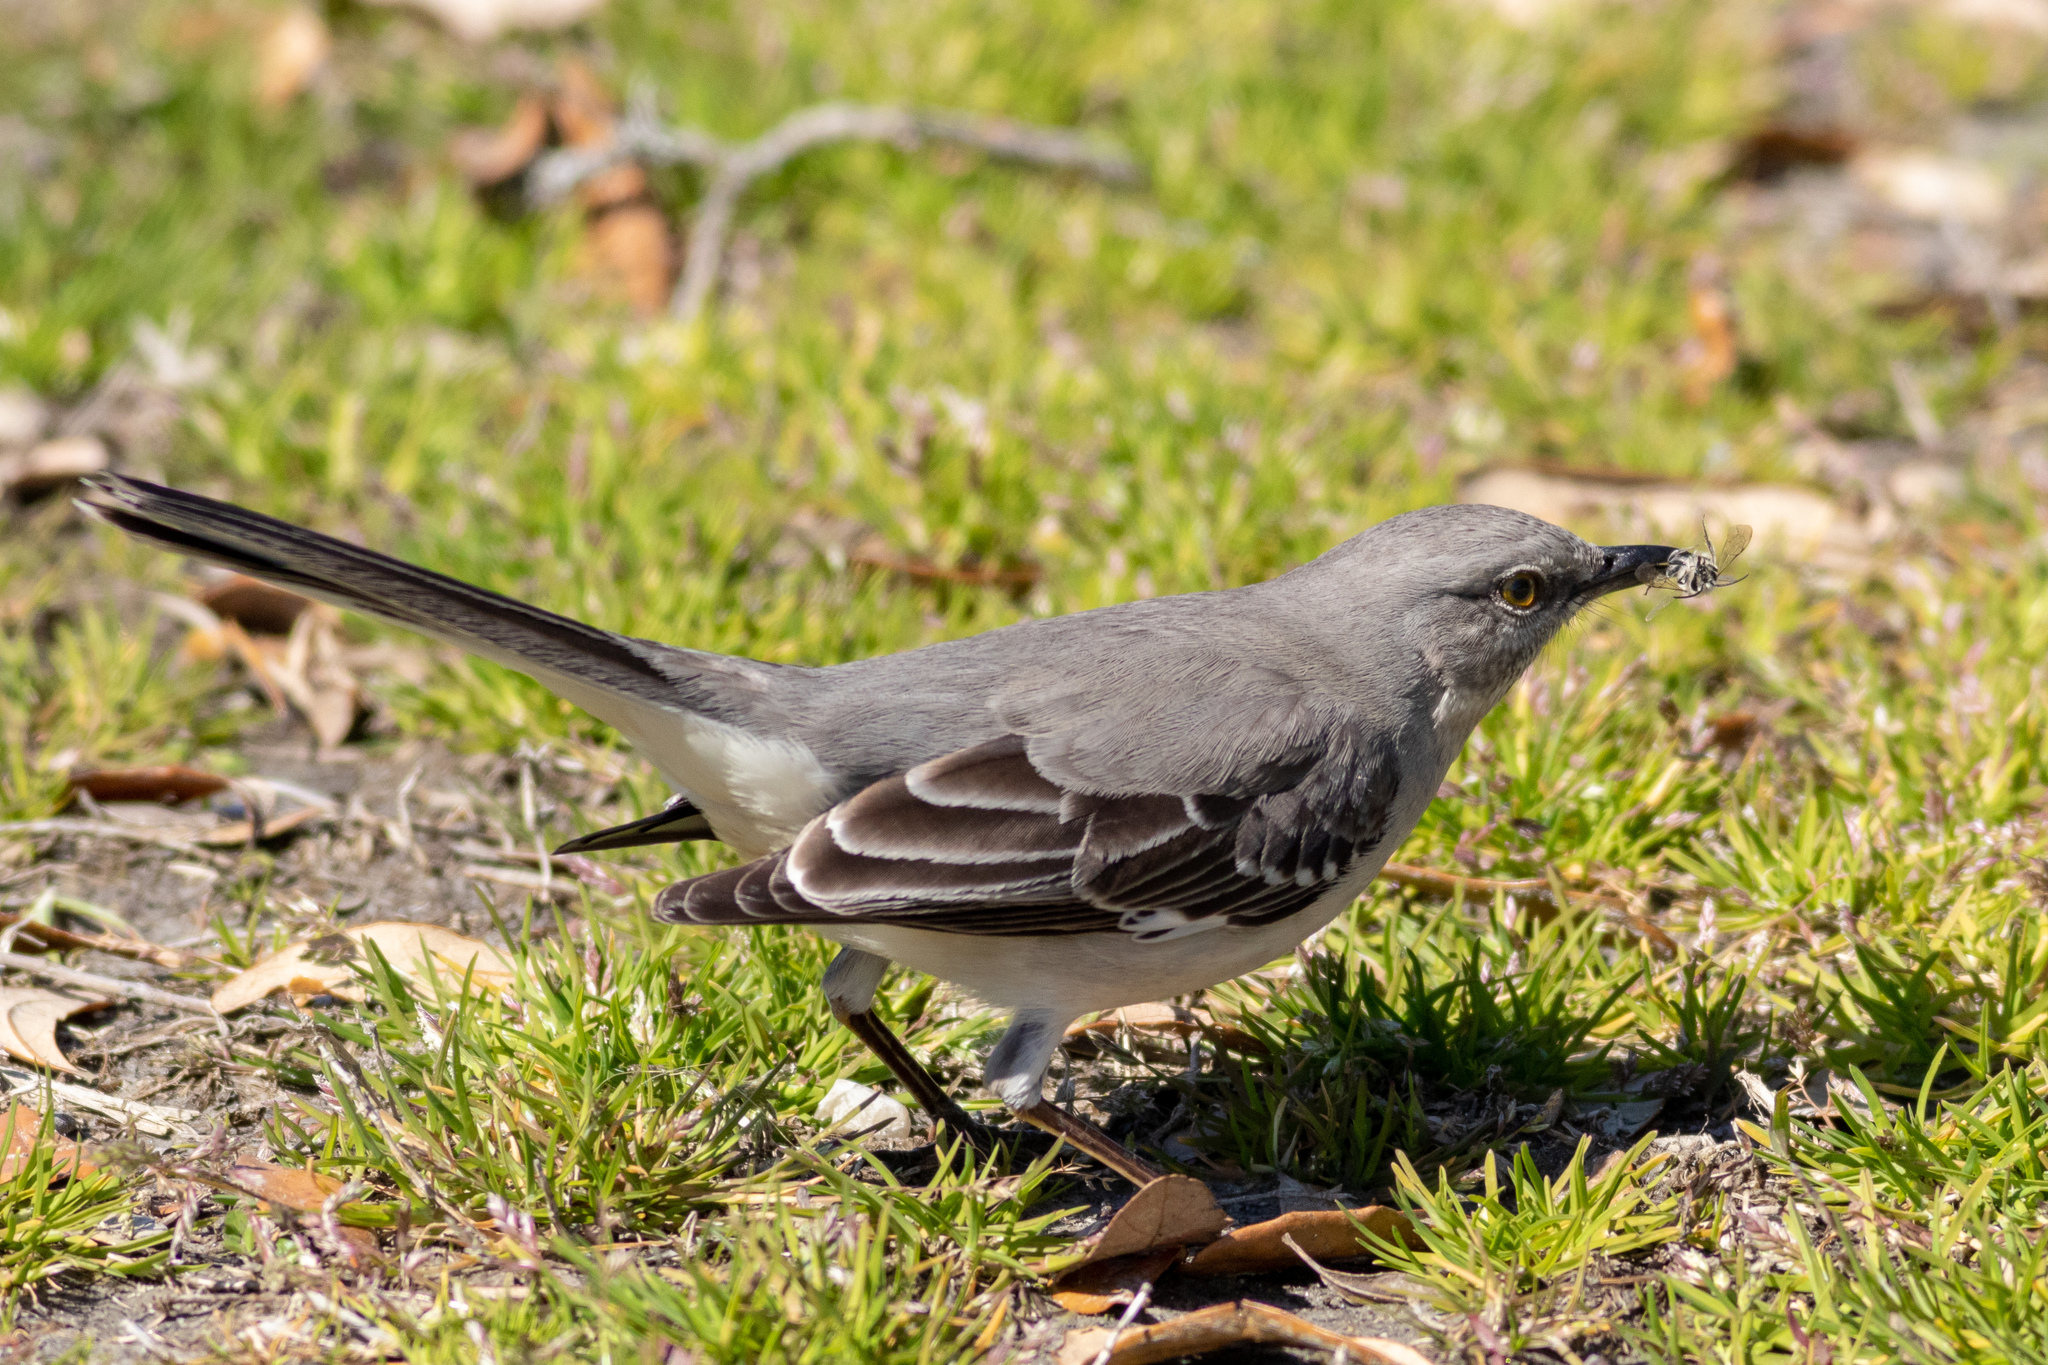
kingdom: Animalia
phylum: Chordata
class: Aves
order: Passeriformes
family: Mimidae
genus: Mimus
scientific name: Mimus polyglottos
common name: Northern mockingbird
